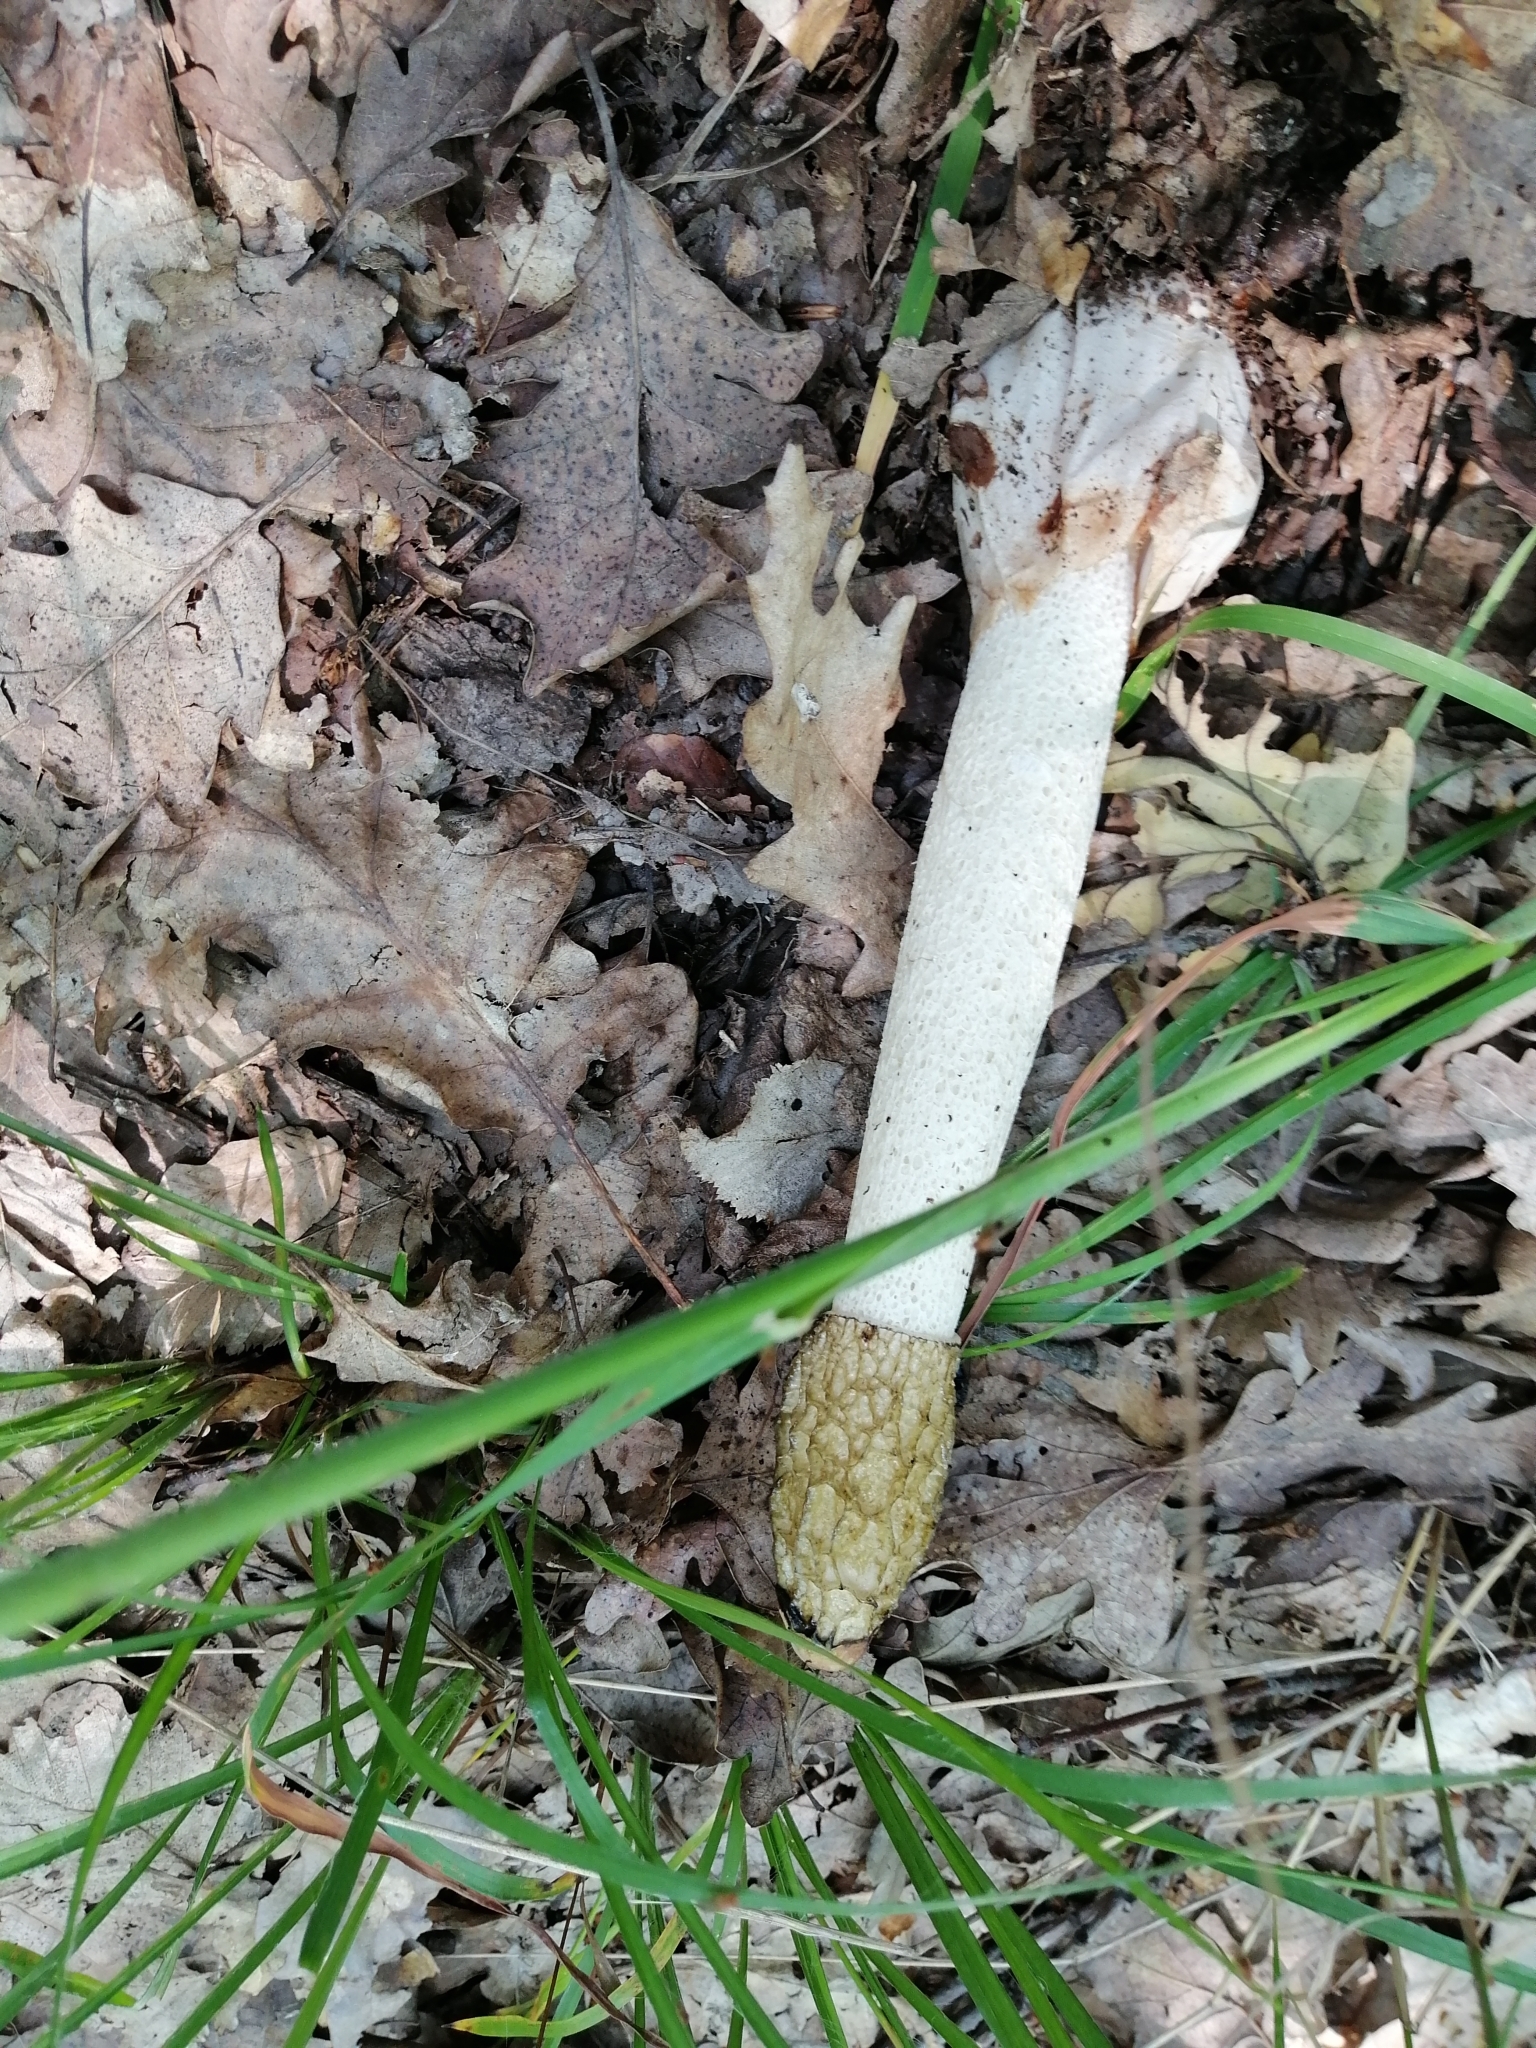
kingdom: Fungi
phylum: Basidiomycota
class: Agaricomycetes
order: Phallales
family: Phallaceae
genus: Phallus
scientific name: Phallus impudicus
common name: Common stinkhorn
